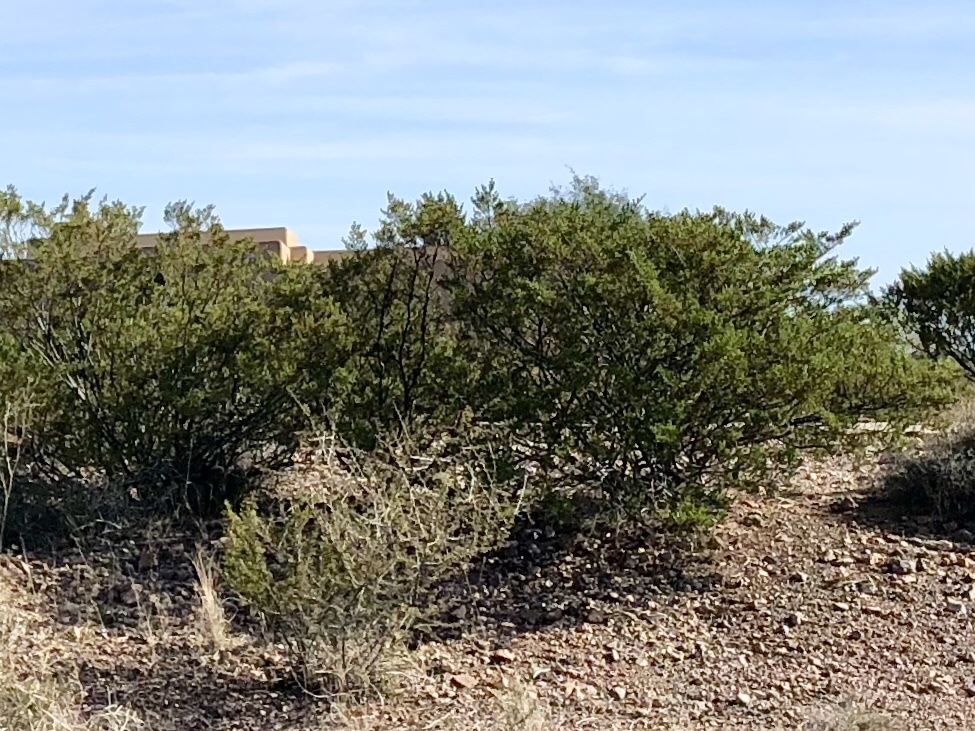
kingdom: Plantae
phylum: Tracheophyta
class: Magnoliopsida
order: Zygophyllales
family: Zygophyllaceae
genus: Larrea
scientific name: Larrea tridentata
